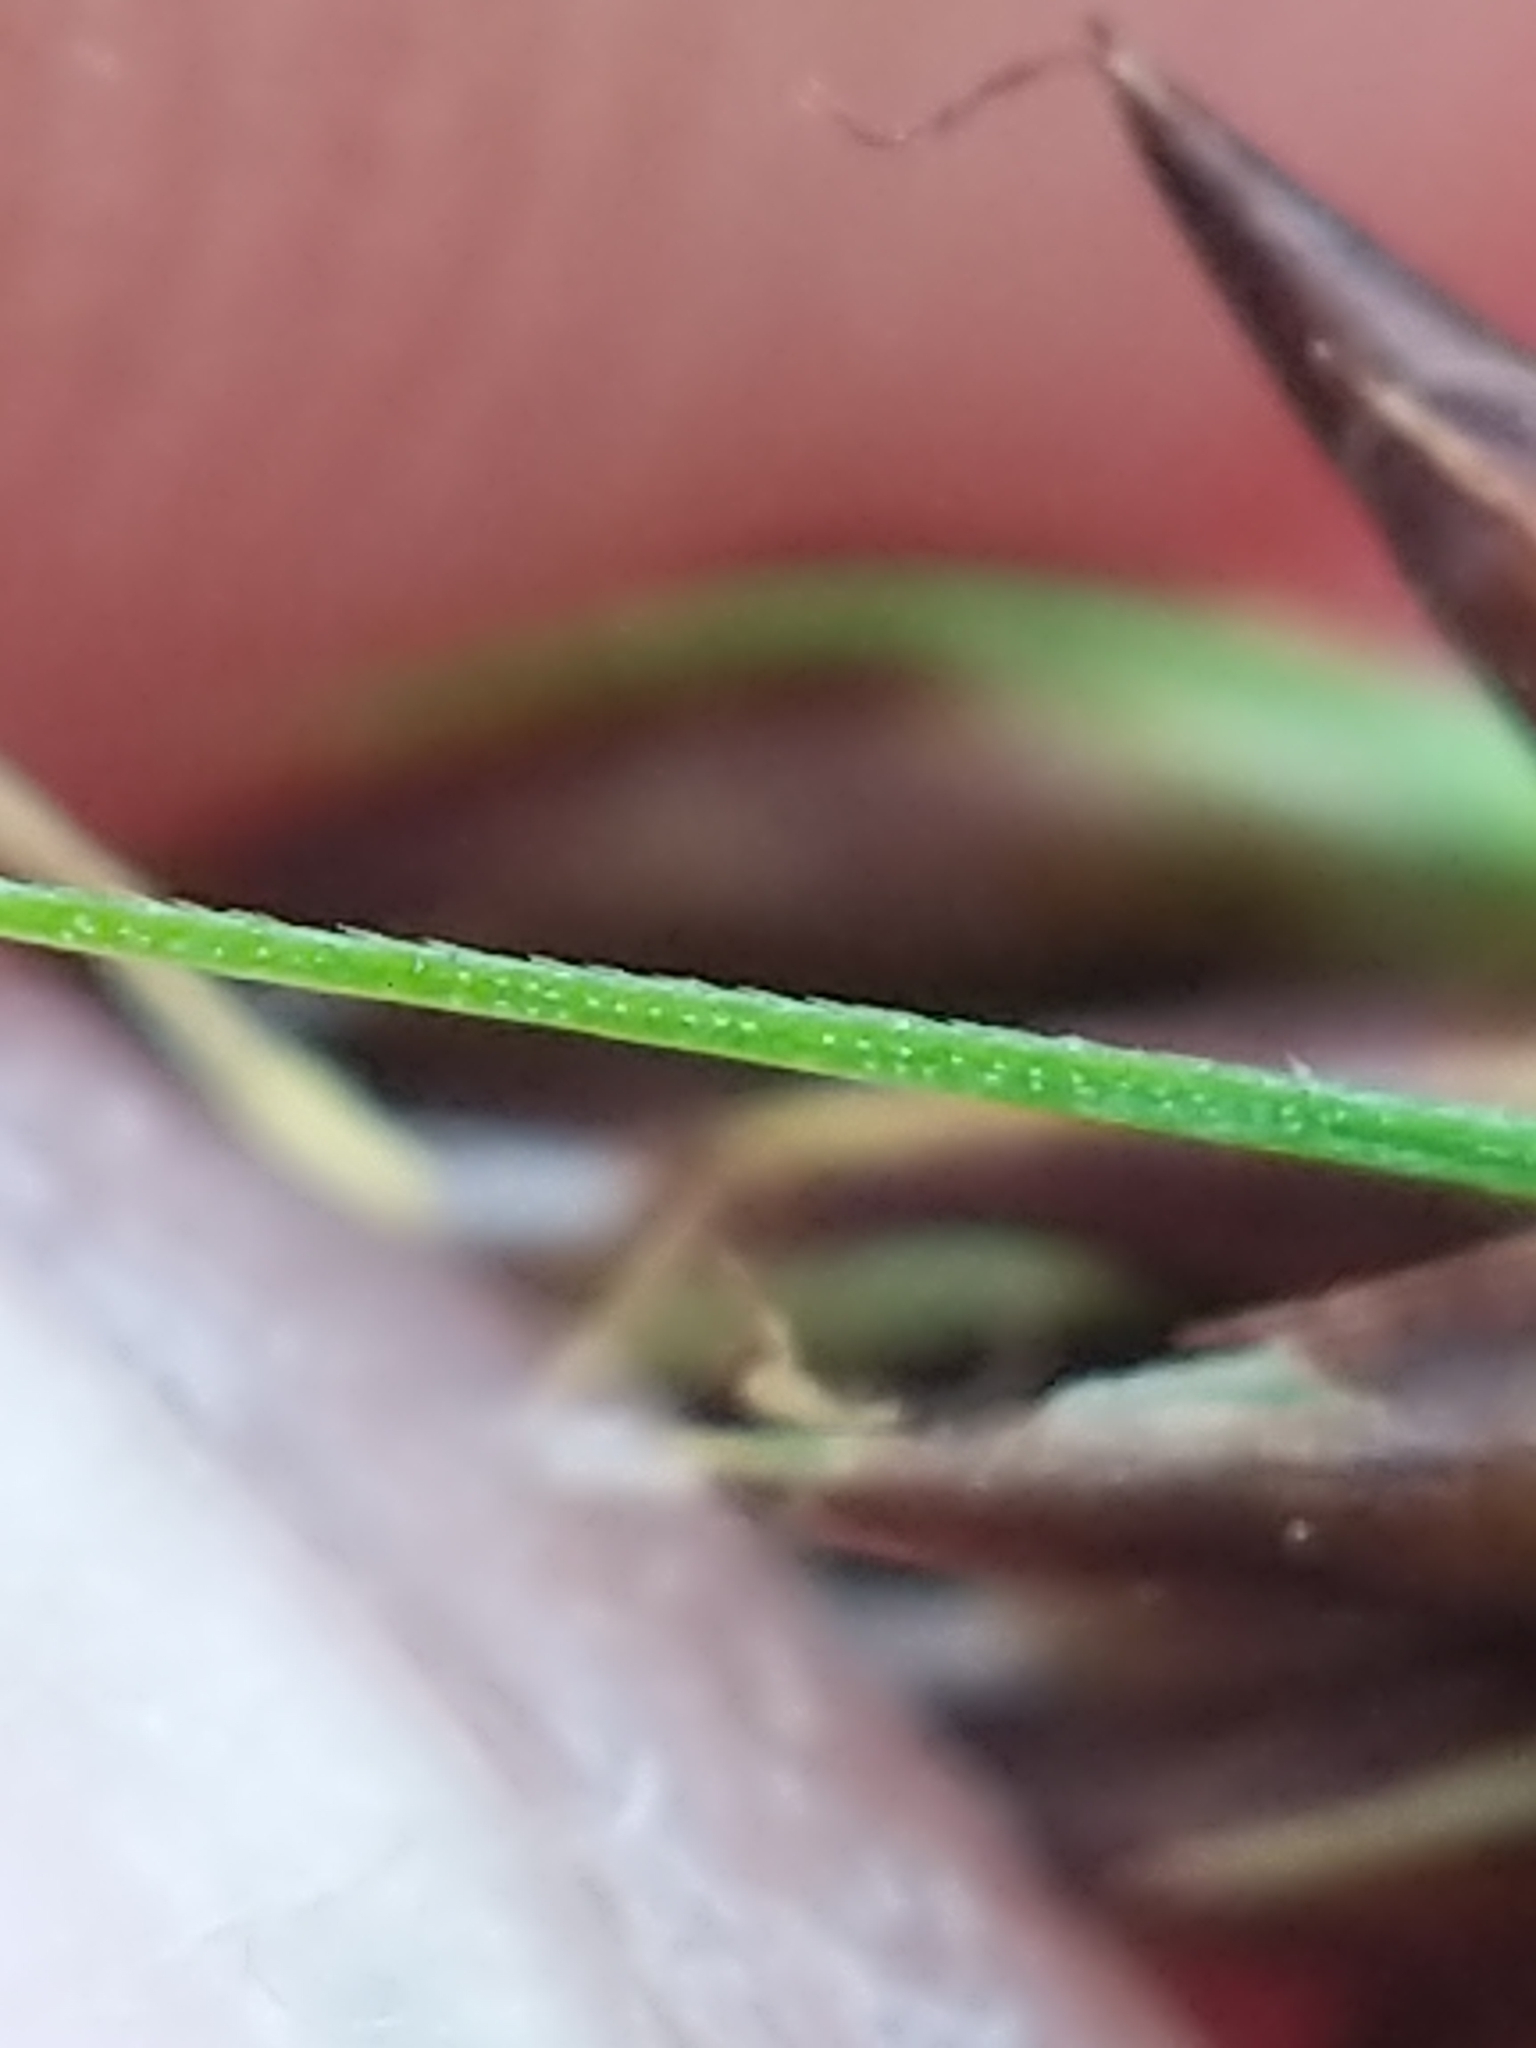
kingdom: Plantae
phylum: Tracheophyta
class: Liliopsida
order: Poales
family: Cyperaceae
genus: Rhynchospora
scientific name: Rhynchospora capitellata
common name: Brownish beaksedge
